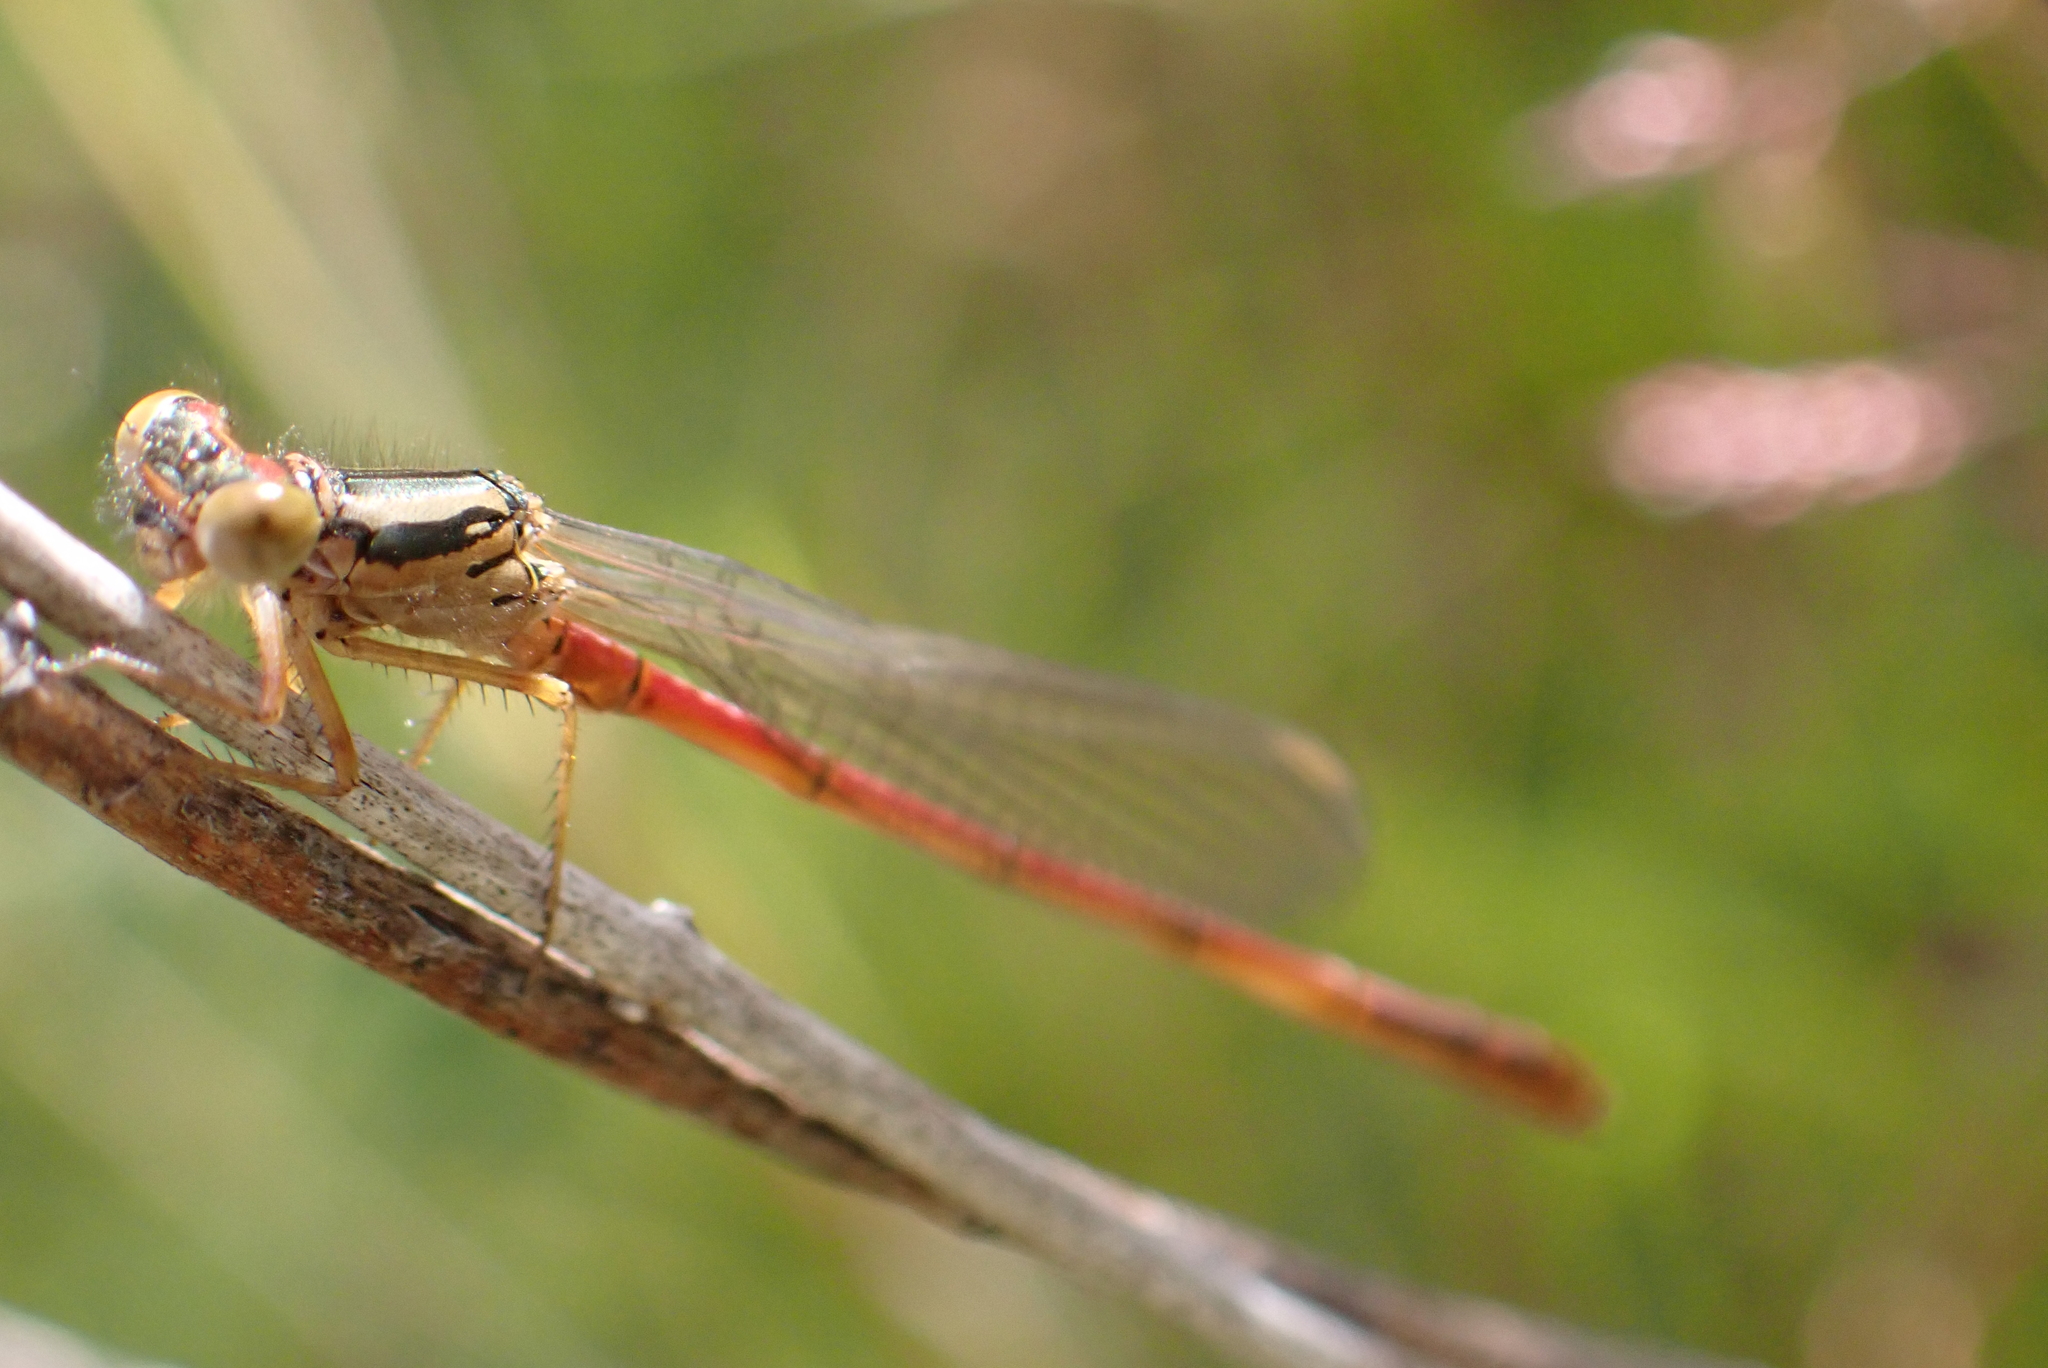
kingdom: Animalia
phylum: Arthropoda
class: Insecta
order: Odonata
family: Coenagrionidae
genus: Xanthocnemis
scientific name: Xanthocnemis zealandica
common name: Common redcoat damselfly
